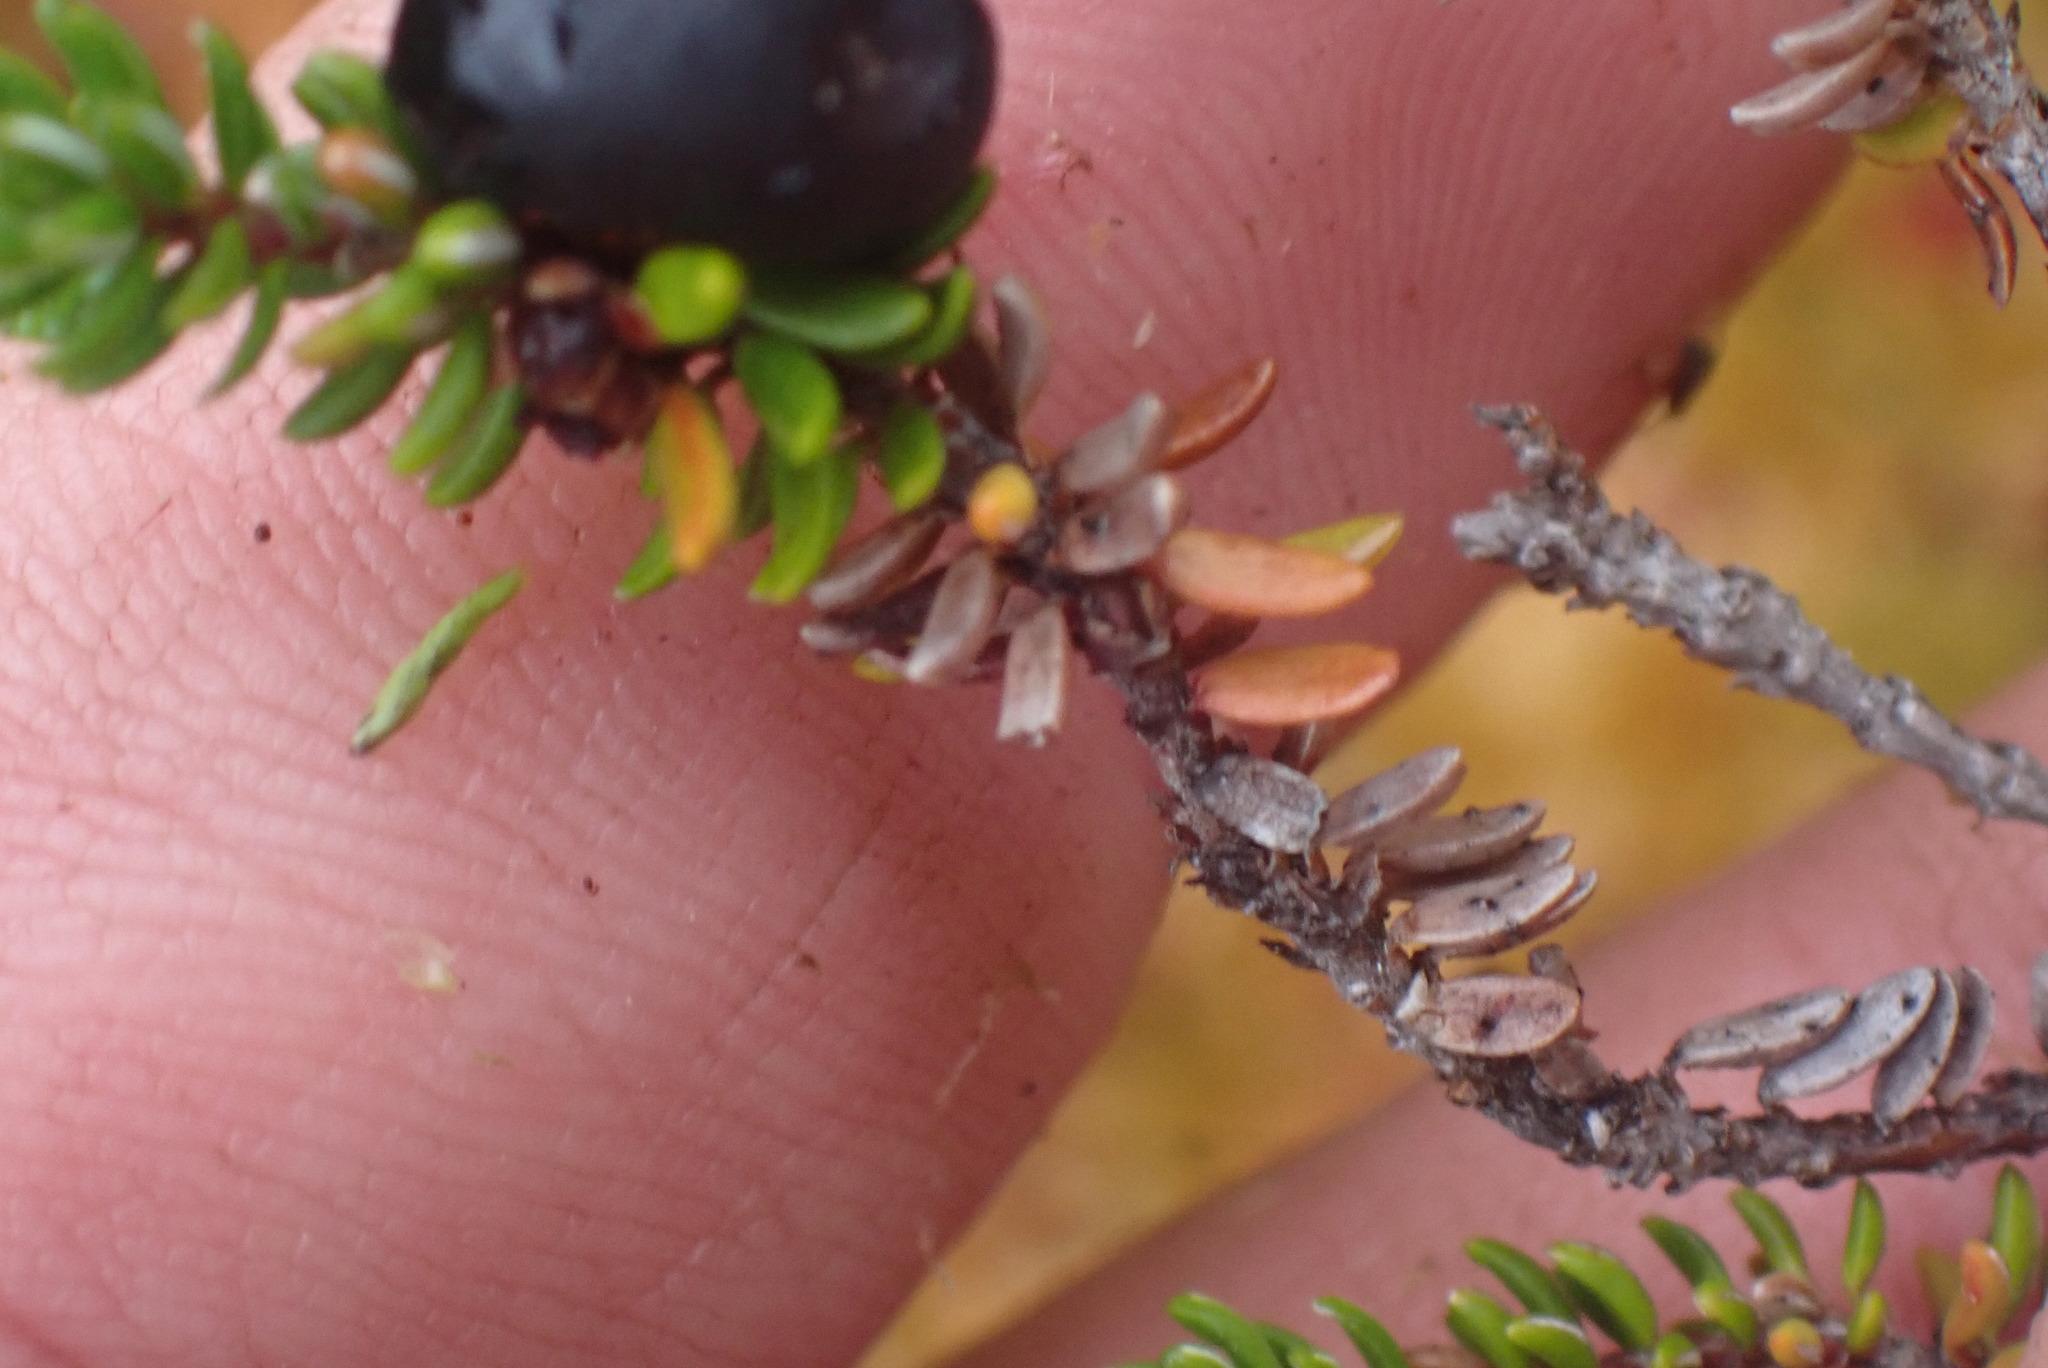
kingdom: Plantae
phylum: Tracheophyta
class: Magnoliopsida
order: Ericales
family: Ericaceae
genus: Empetrum
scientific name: Empetrum nigrum
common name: Black crowberry
